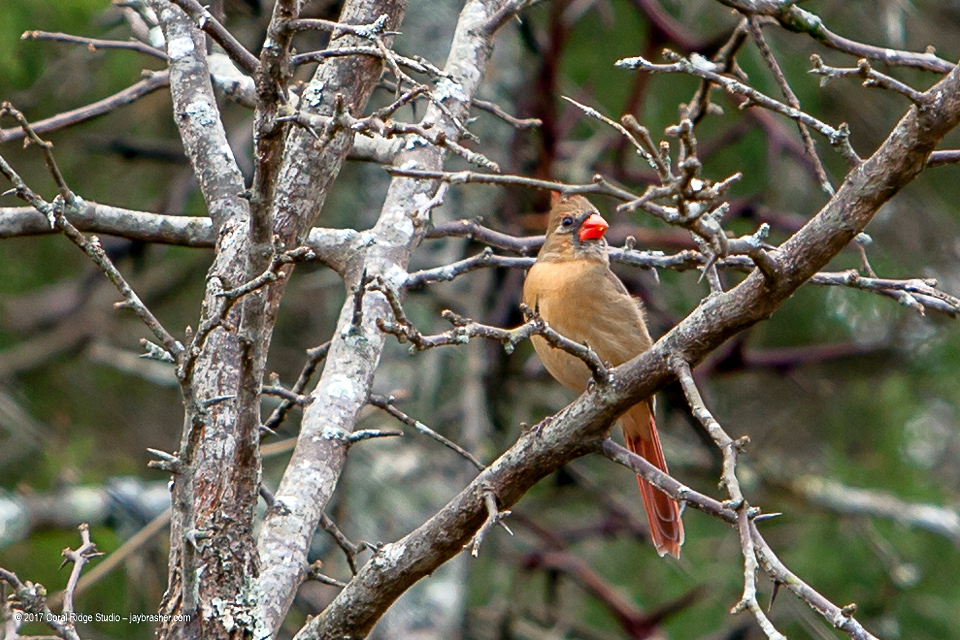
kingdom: Animalia
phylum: Chordata
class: Aves
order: Passeriformes
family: Cardinalidae
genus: Cardinalis
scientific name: Cardinalis cardinalis
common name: Northern cardinal
